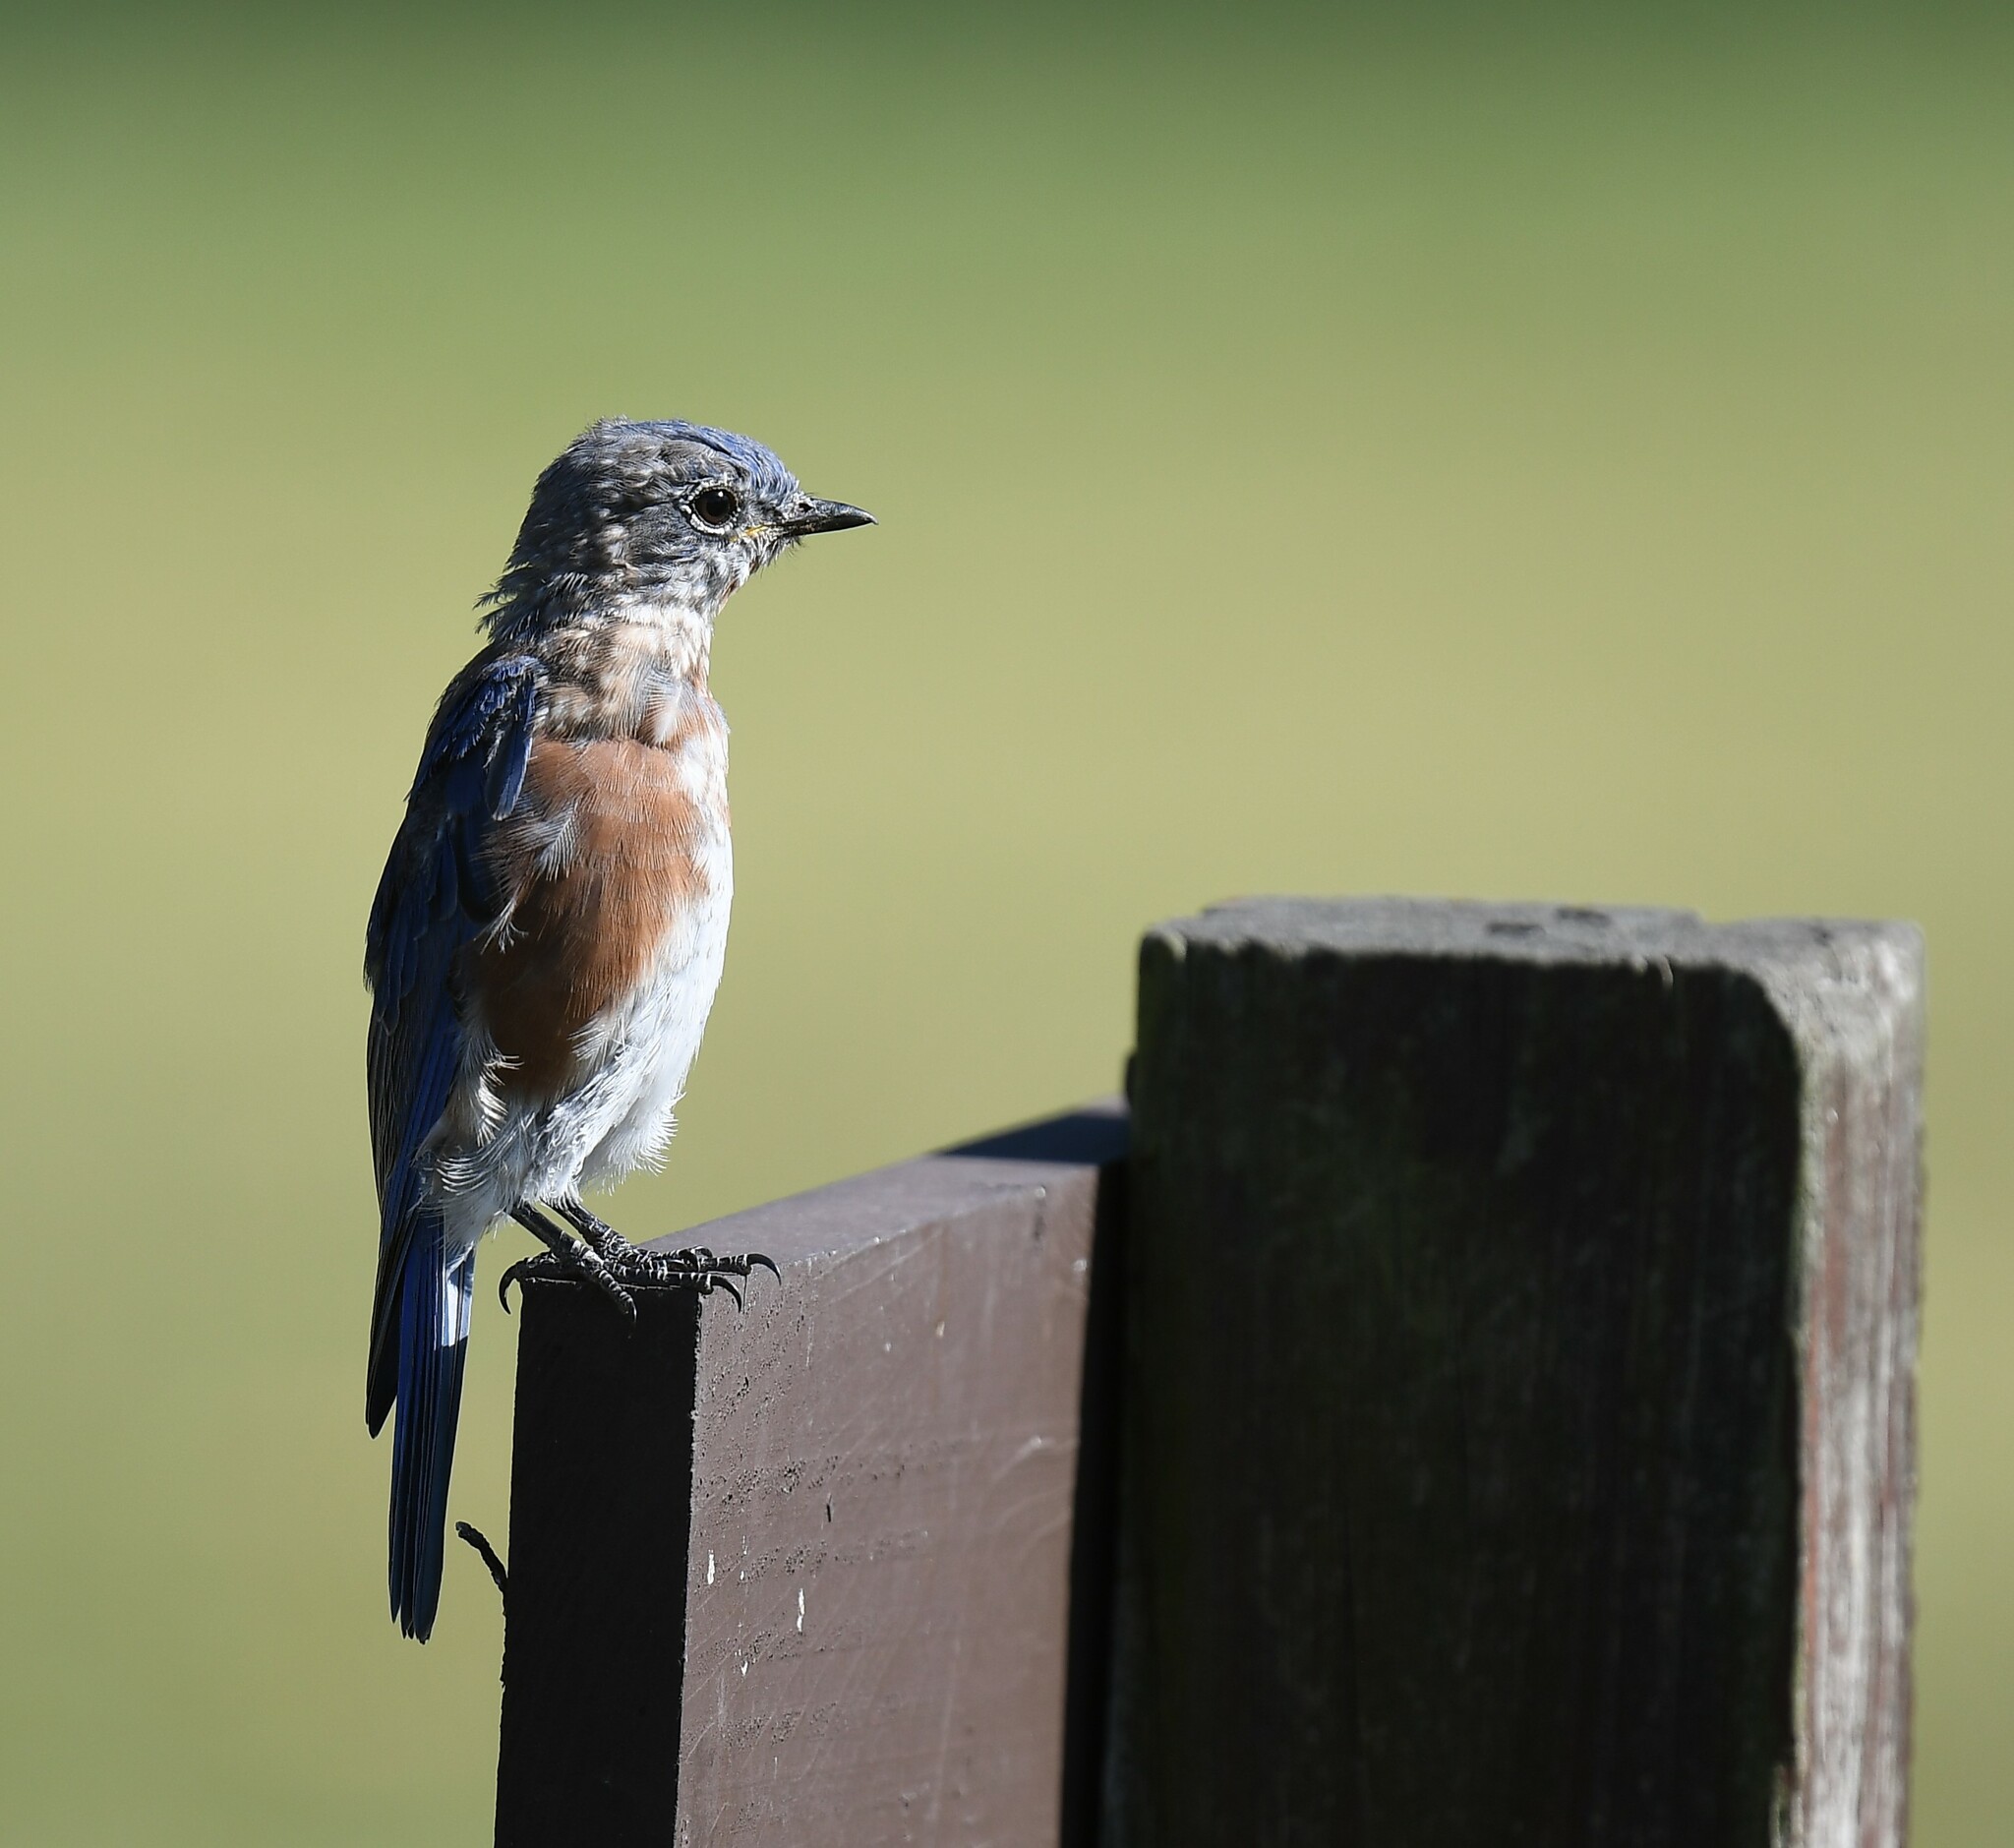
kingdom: Animalia
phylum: Chordata
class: Aves
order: Passeriformes
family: Turdidae
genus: Sialia
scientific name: Sialia sialis
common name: Eastern bluebird
